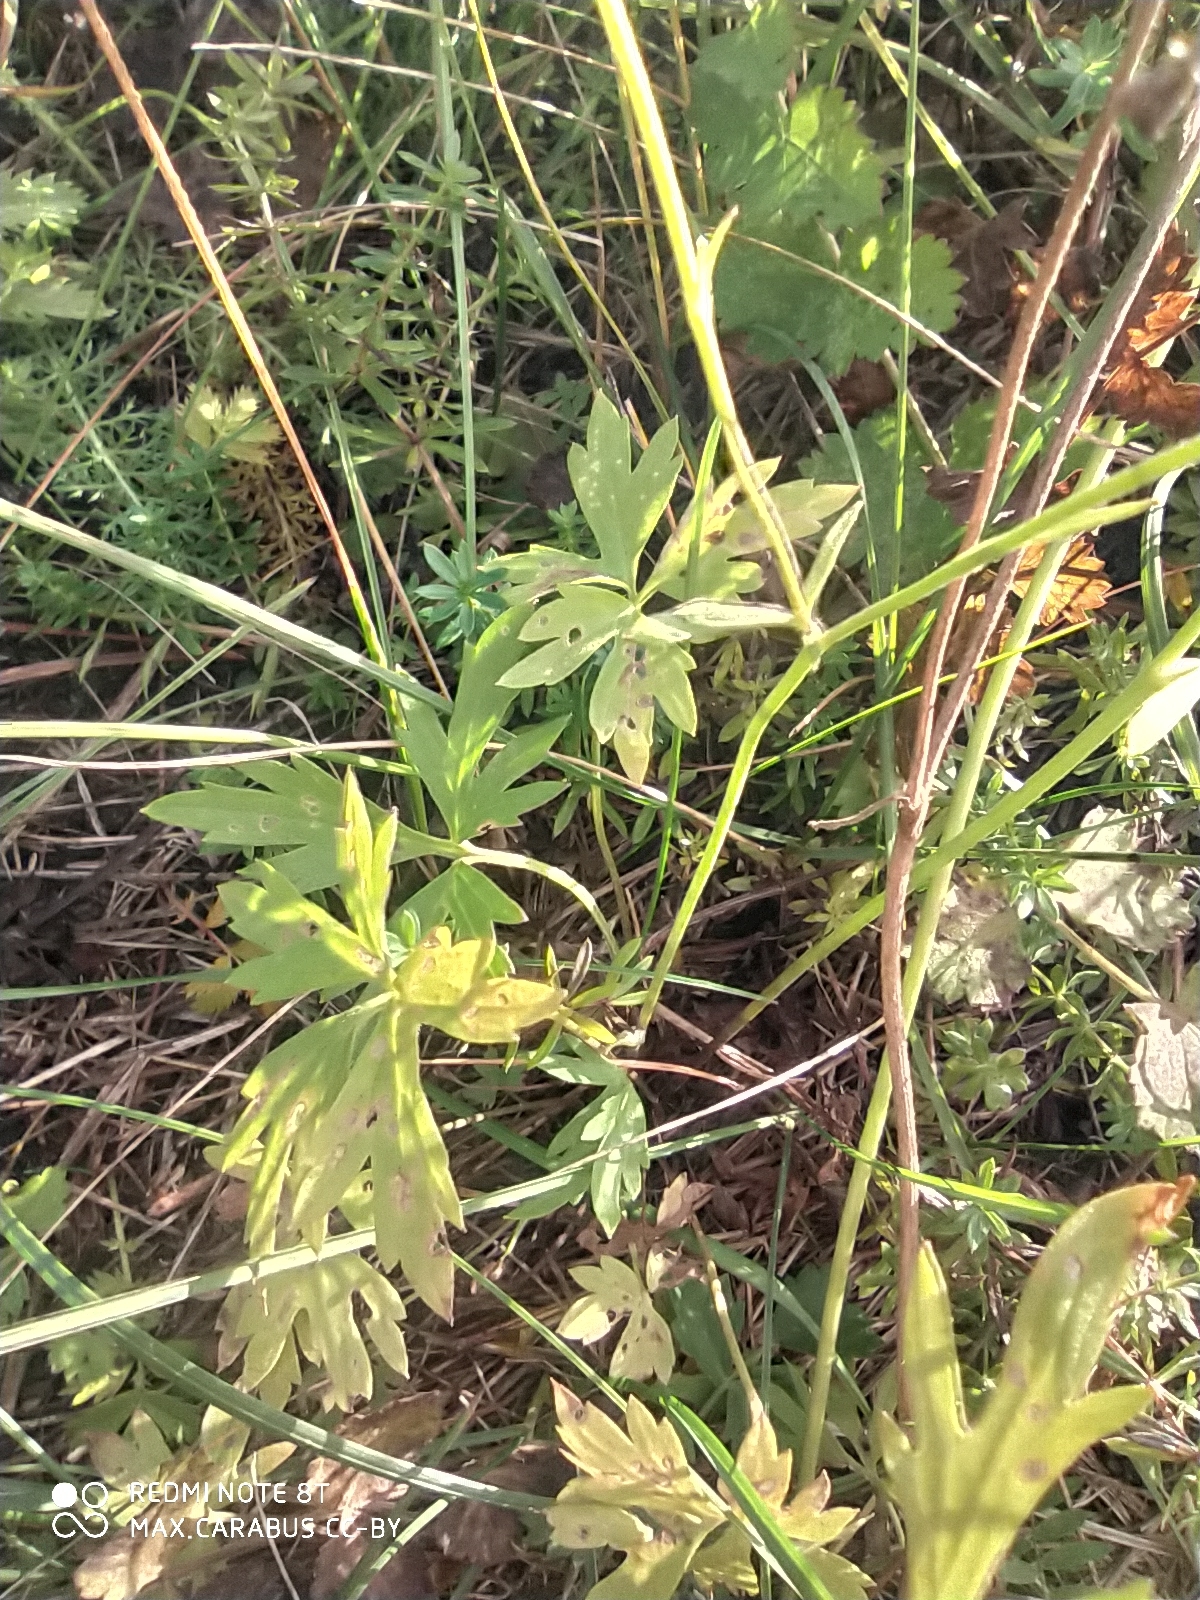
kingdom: Plantae
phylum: Tracheophyta
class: Magnoliopsida
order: Ranunculales
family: Ranunculaceae
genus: Ranunculus
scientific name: Ranunculus acris
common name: Meadow buttercup
